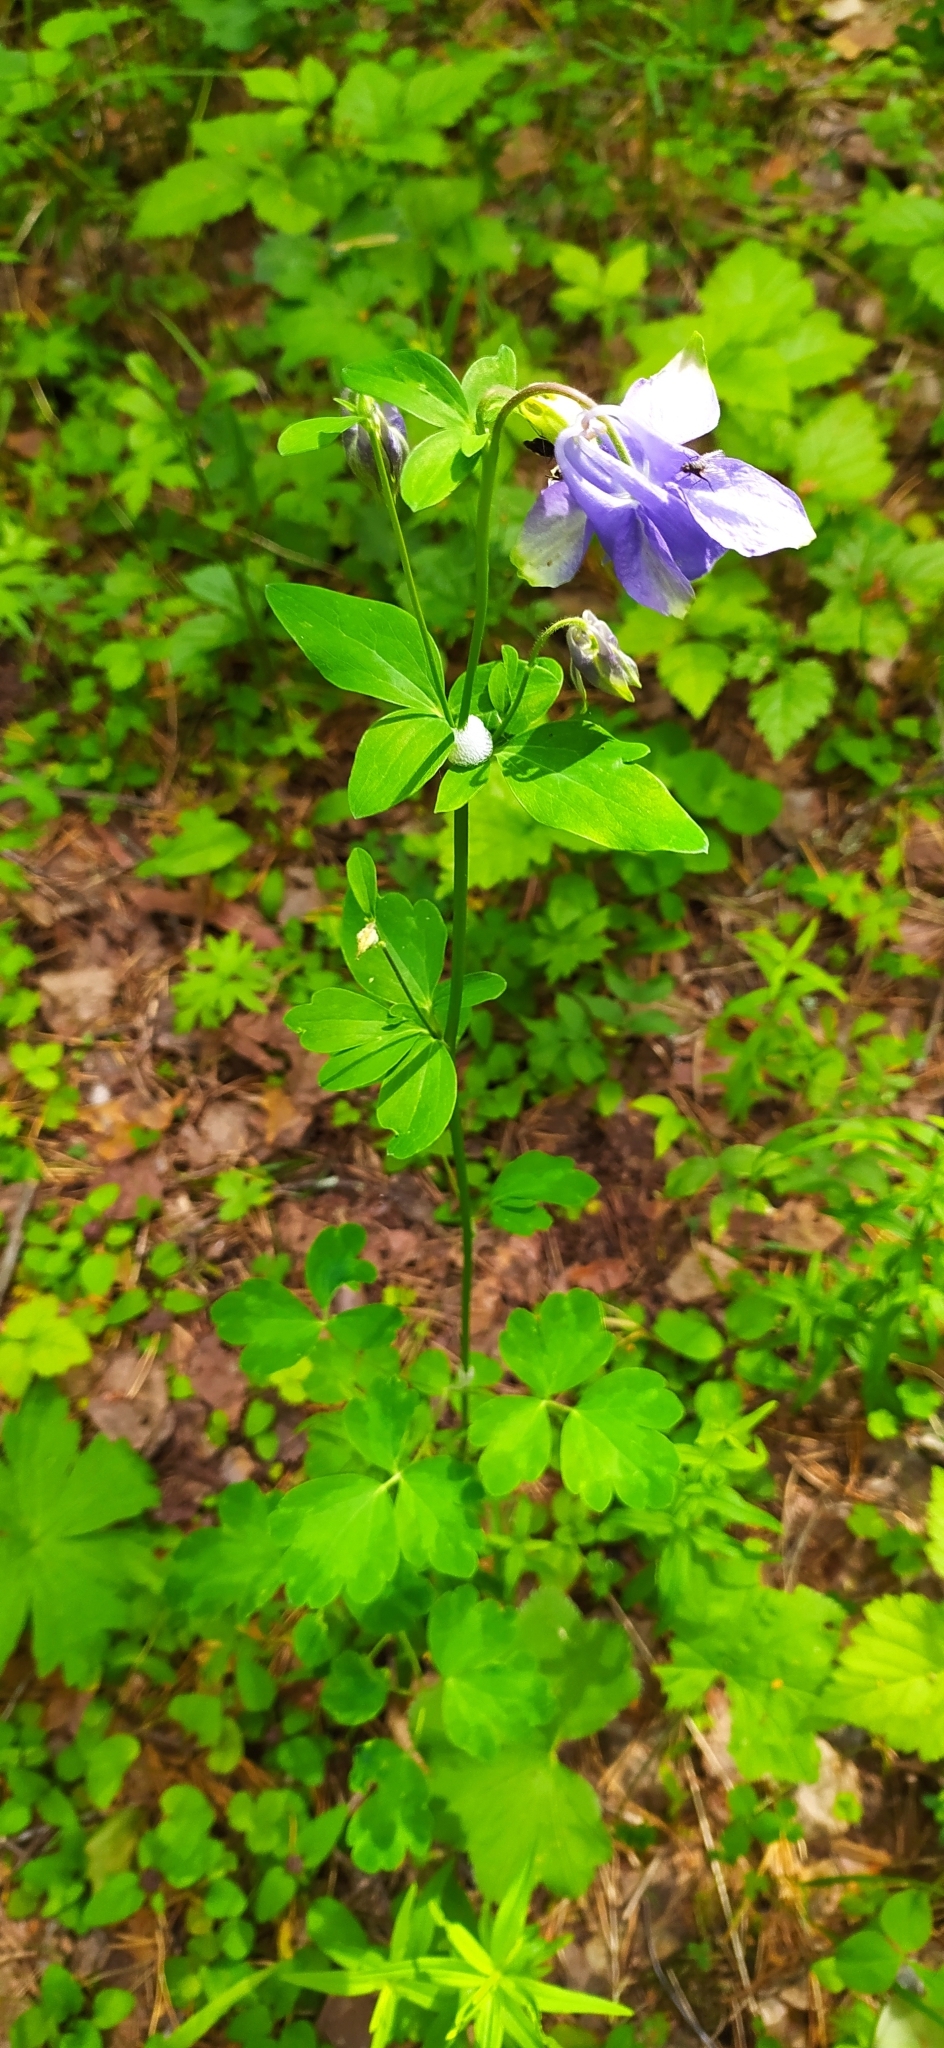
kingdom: Plantae
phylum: Tracheophyta
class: Magnoliopsida
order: Ranunculales
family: Ranunculaceae
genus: Aquilegia
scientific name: Aquilegia vulgaris
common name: Columbine
